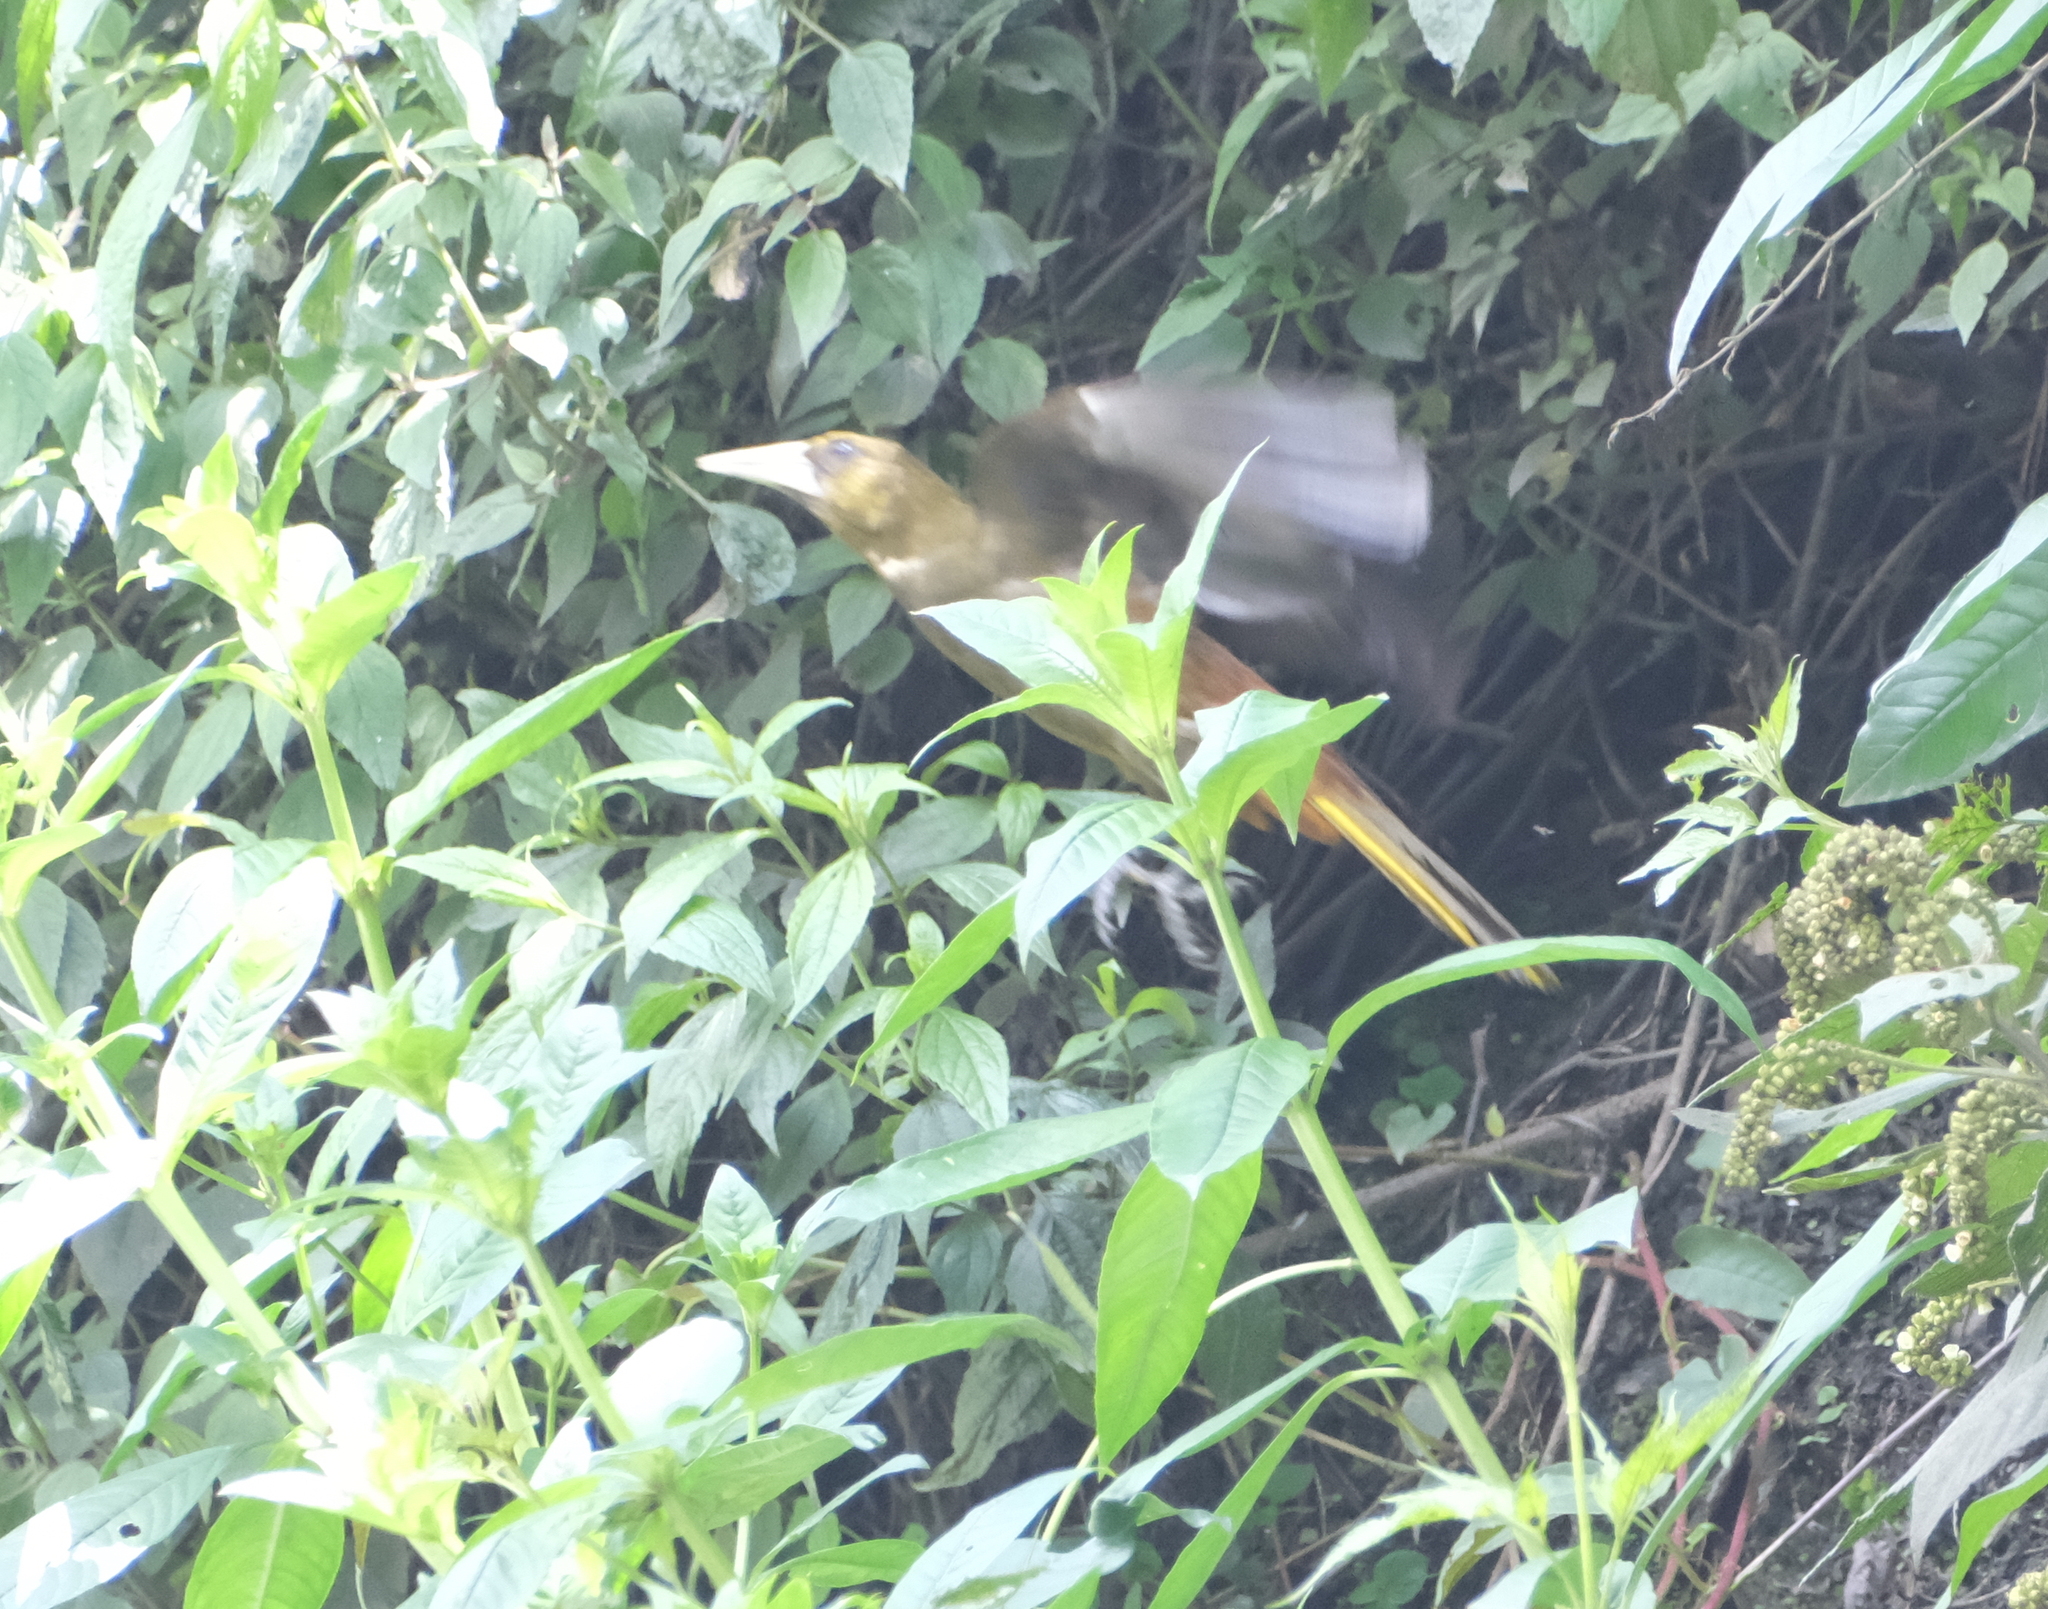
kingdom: Animalia
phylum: Chordata
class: Aves
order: Passeriformes
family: Icteridae
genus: Psarocolius
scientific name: Psarocolius angustifrons
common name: Russet-backed oropendola
